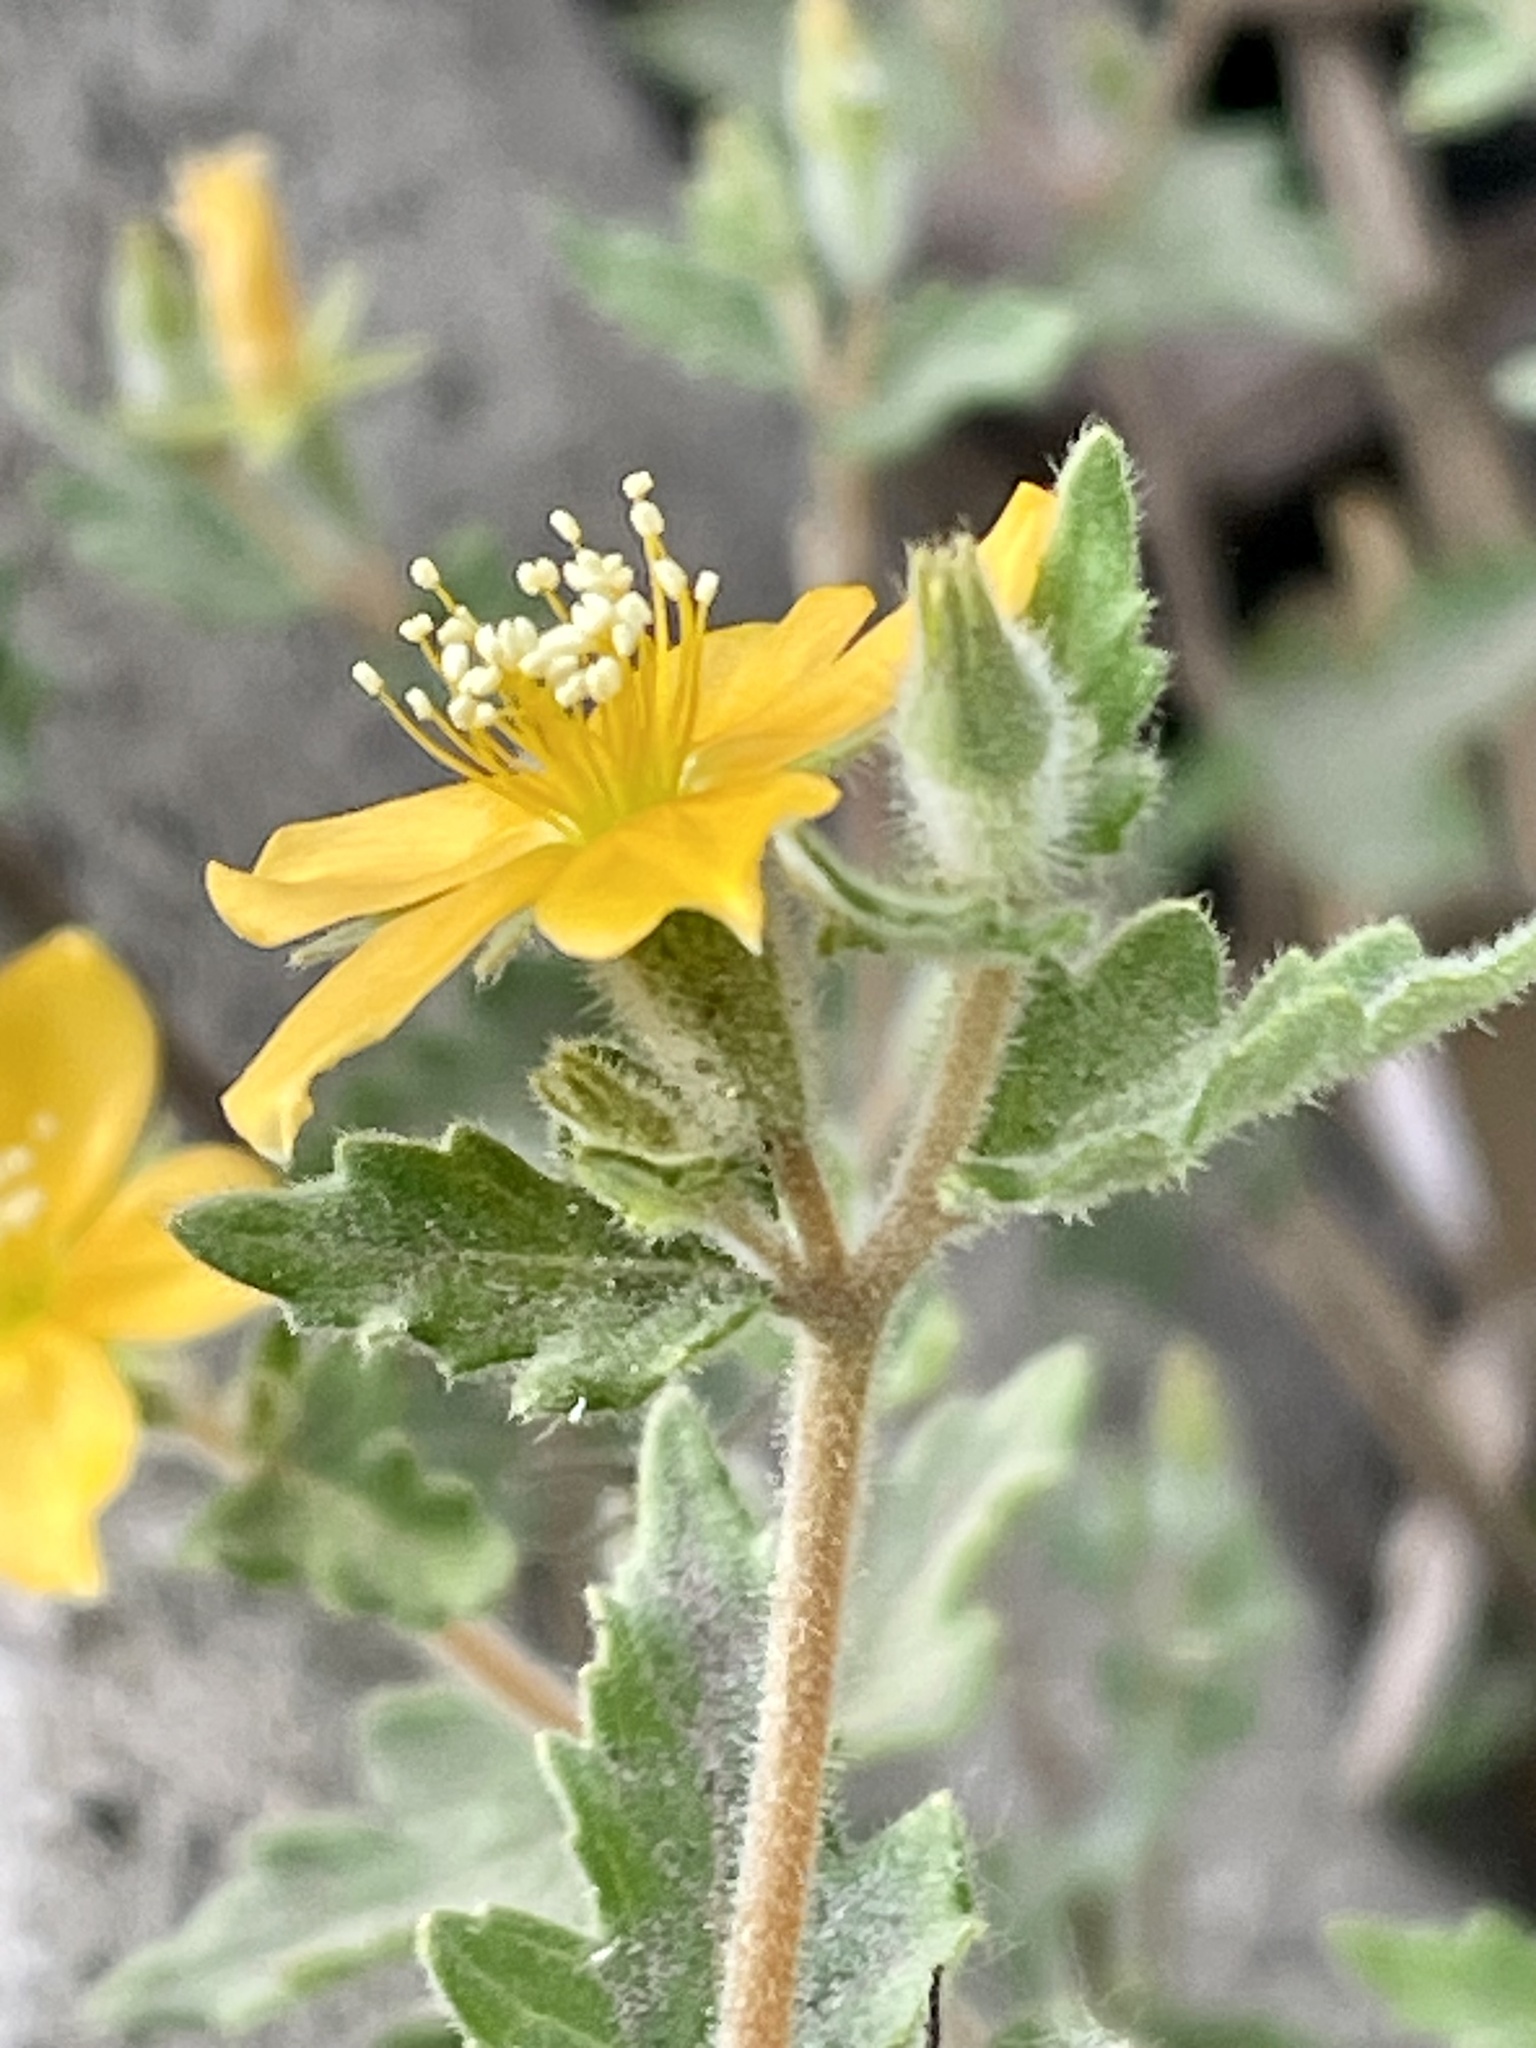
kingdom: Plantae
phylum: Tracheophyta
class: Magnoliopsida
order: Cornales
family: Loasaceae
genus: Mentzelia
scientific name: Mentzelia adhaerens
